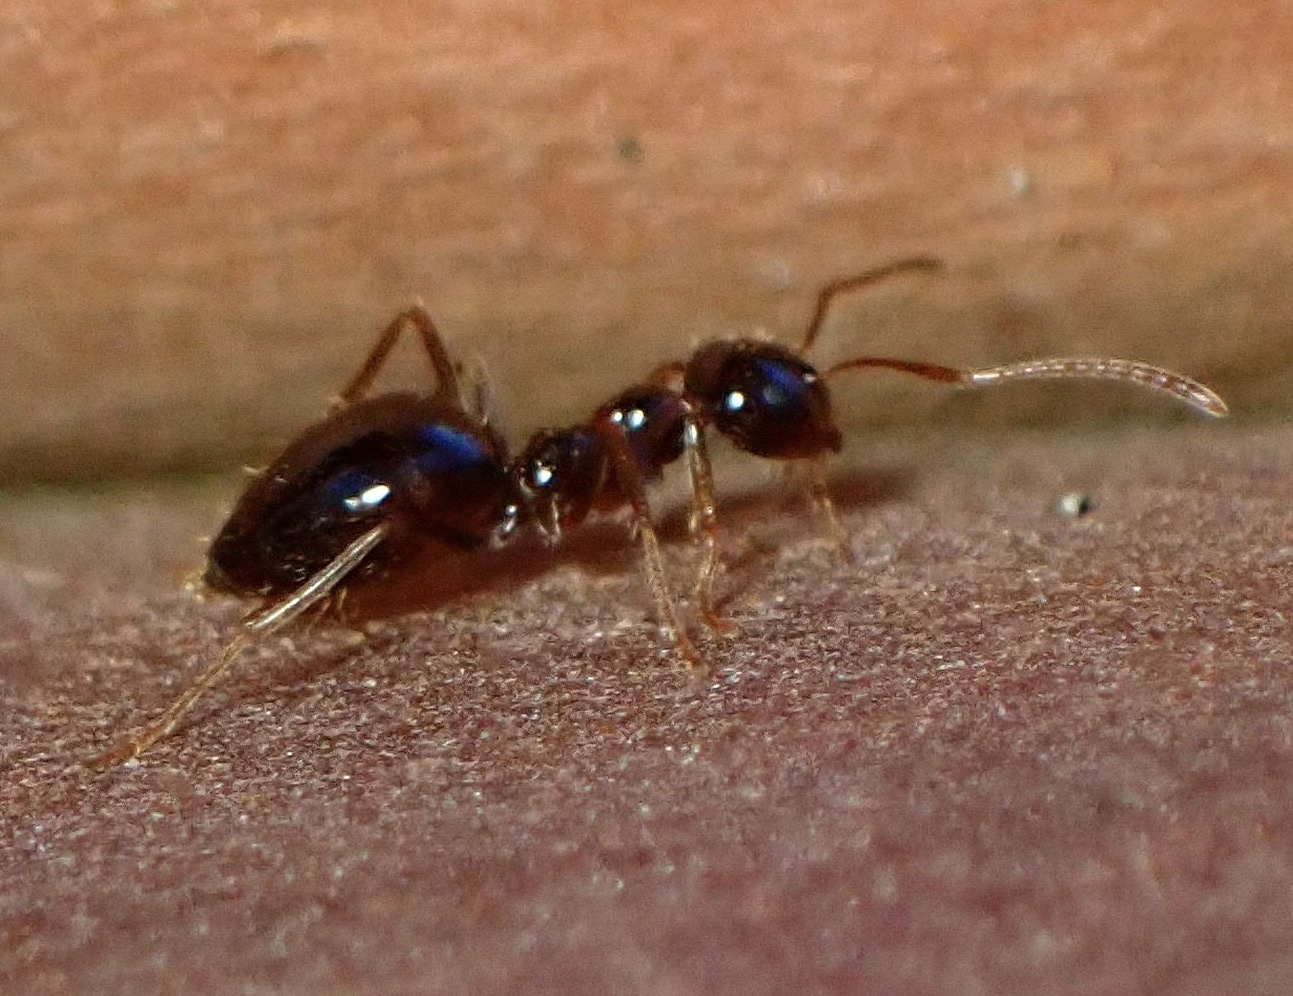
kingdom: Animalia
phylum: Arthropoda
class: Insecta
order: Hymenoptera
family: Formicidae
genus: Prenolepis
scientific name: Prenolepis imparis
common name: Small honey ant
